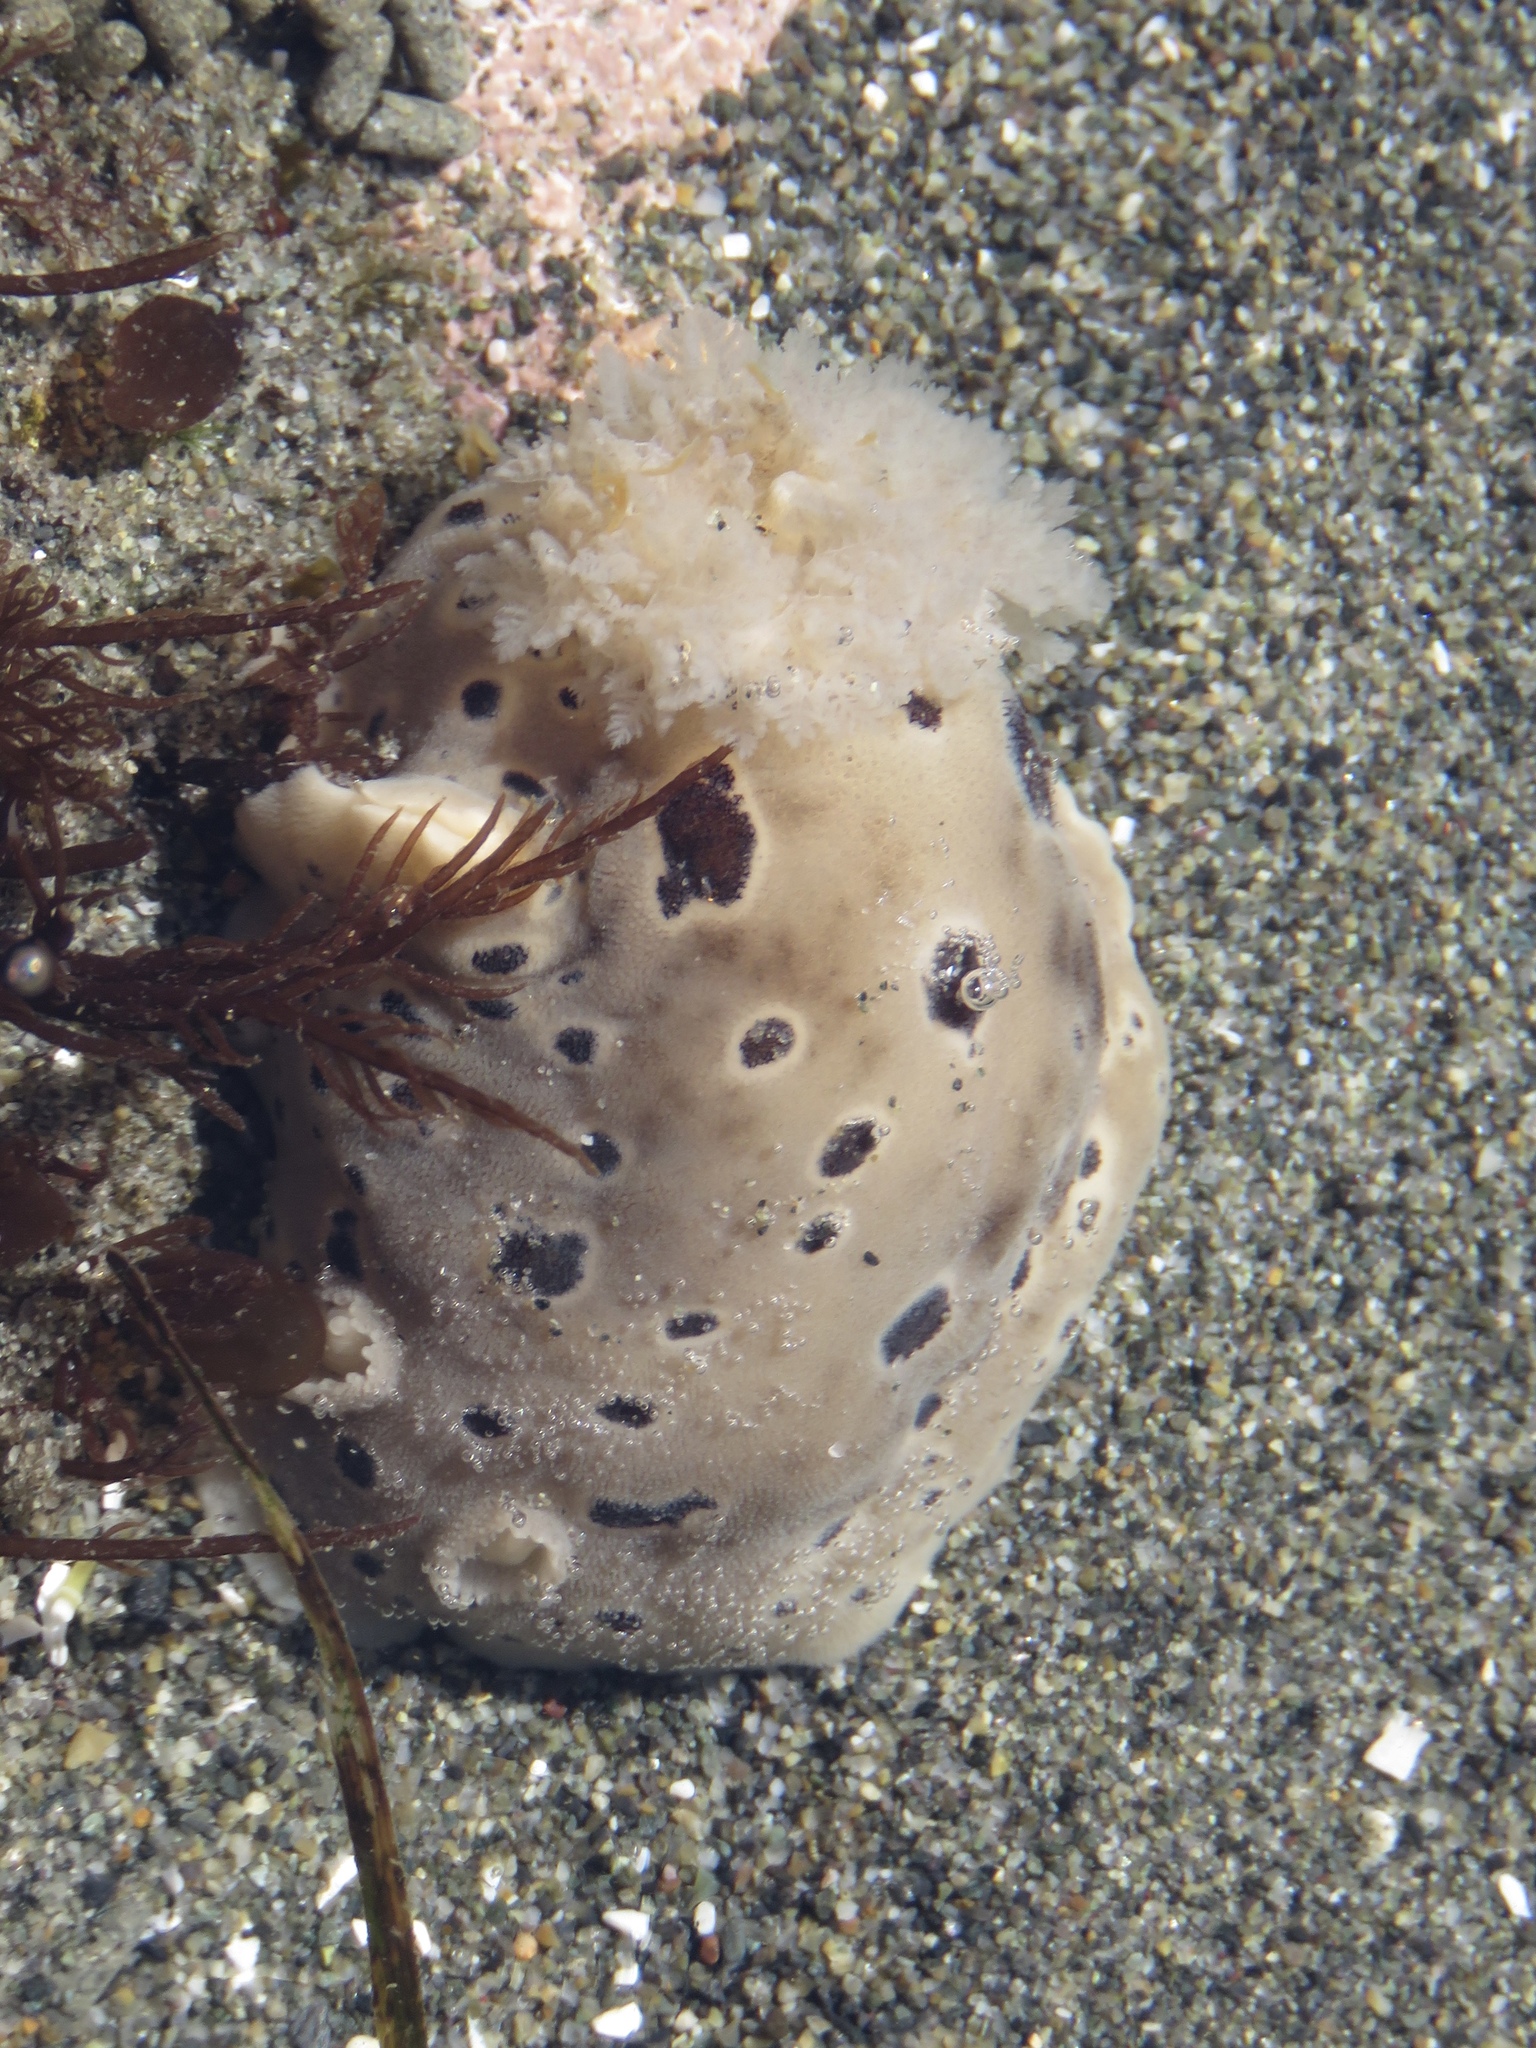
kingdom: Animalia
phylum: Mollusca
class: Gastropoda
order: Nudibranchia
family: Discodorididae
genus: Diaulula
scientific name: Diaulula odonoghuei
